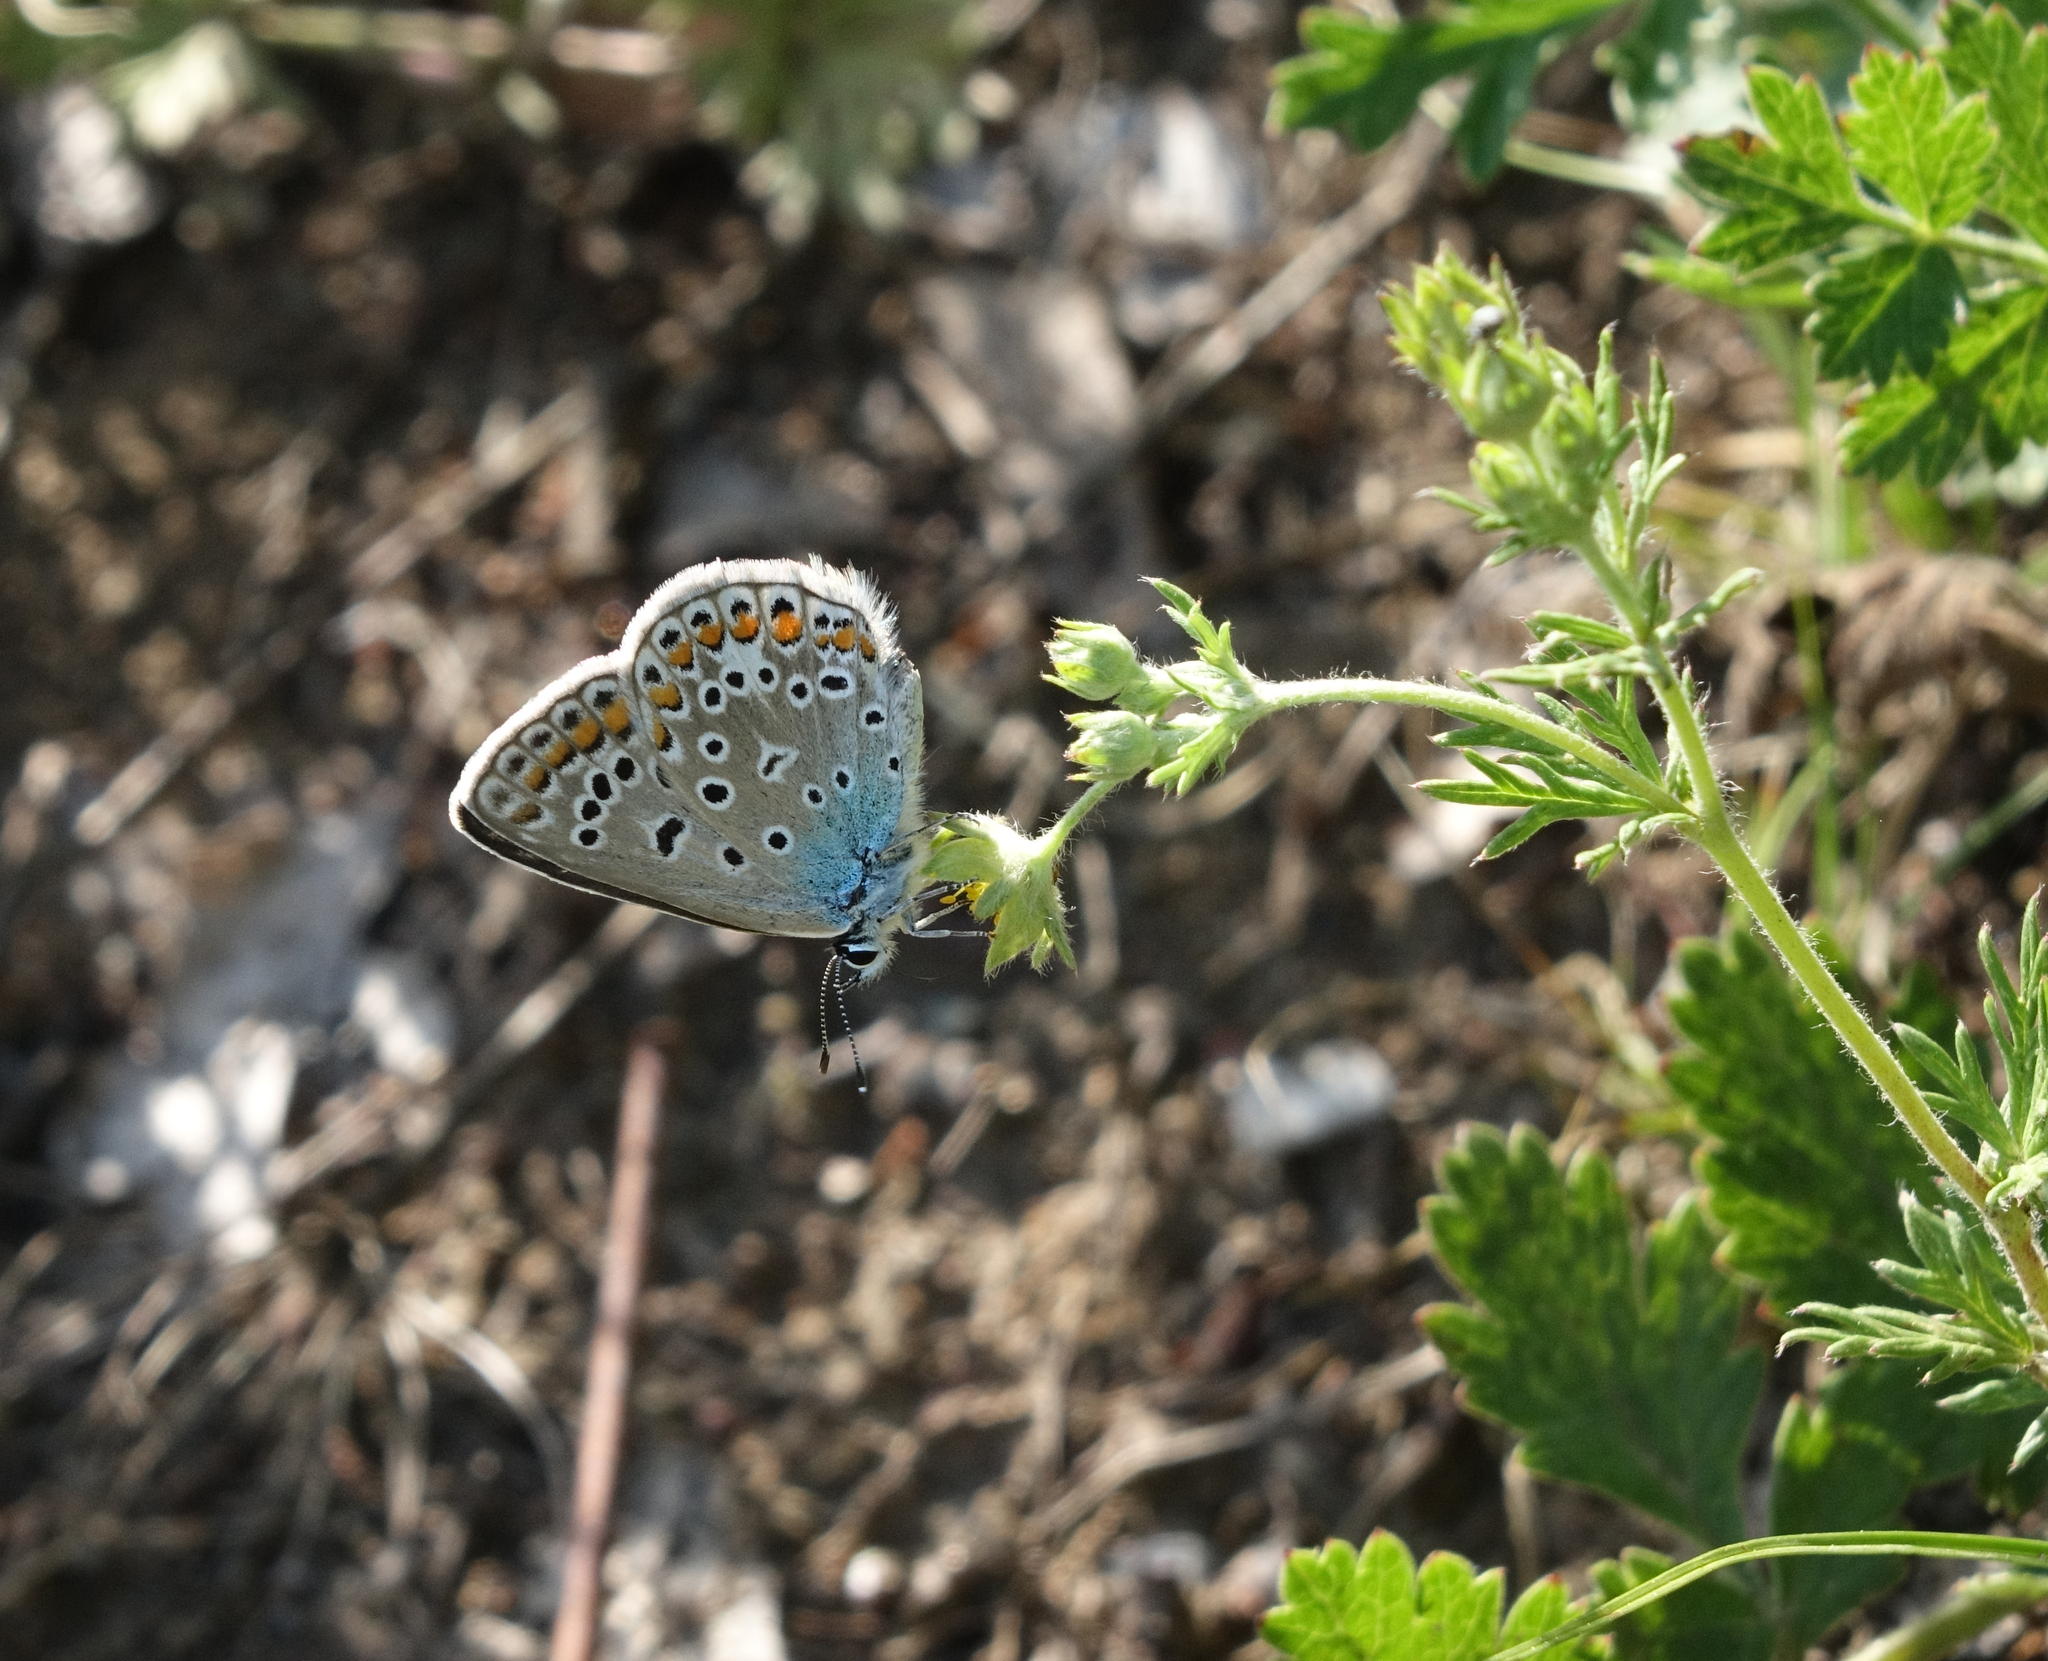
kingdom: Animalia
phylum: Arthropoda
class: Insecta
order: Lepidoptera
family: Lycaenidae
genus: Polyommatus
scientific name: Polyommatus icarus
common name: Common blue
